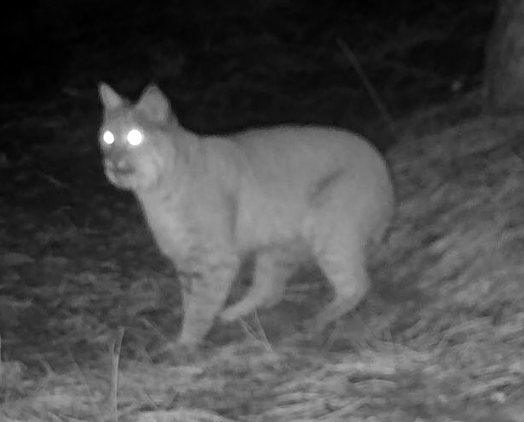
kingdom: Animalia
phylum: Chordata
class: Mammalia
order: Carnivora
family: Felidae
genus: Lynx
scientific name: Lynx rufus
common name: Bobcat
